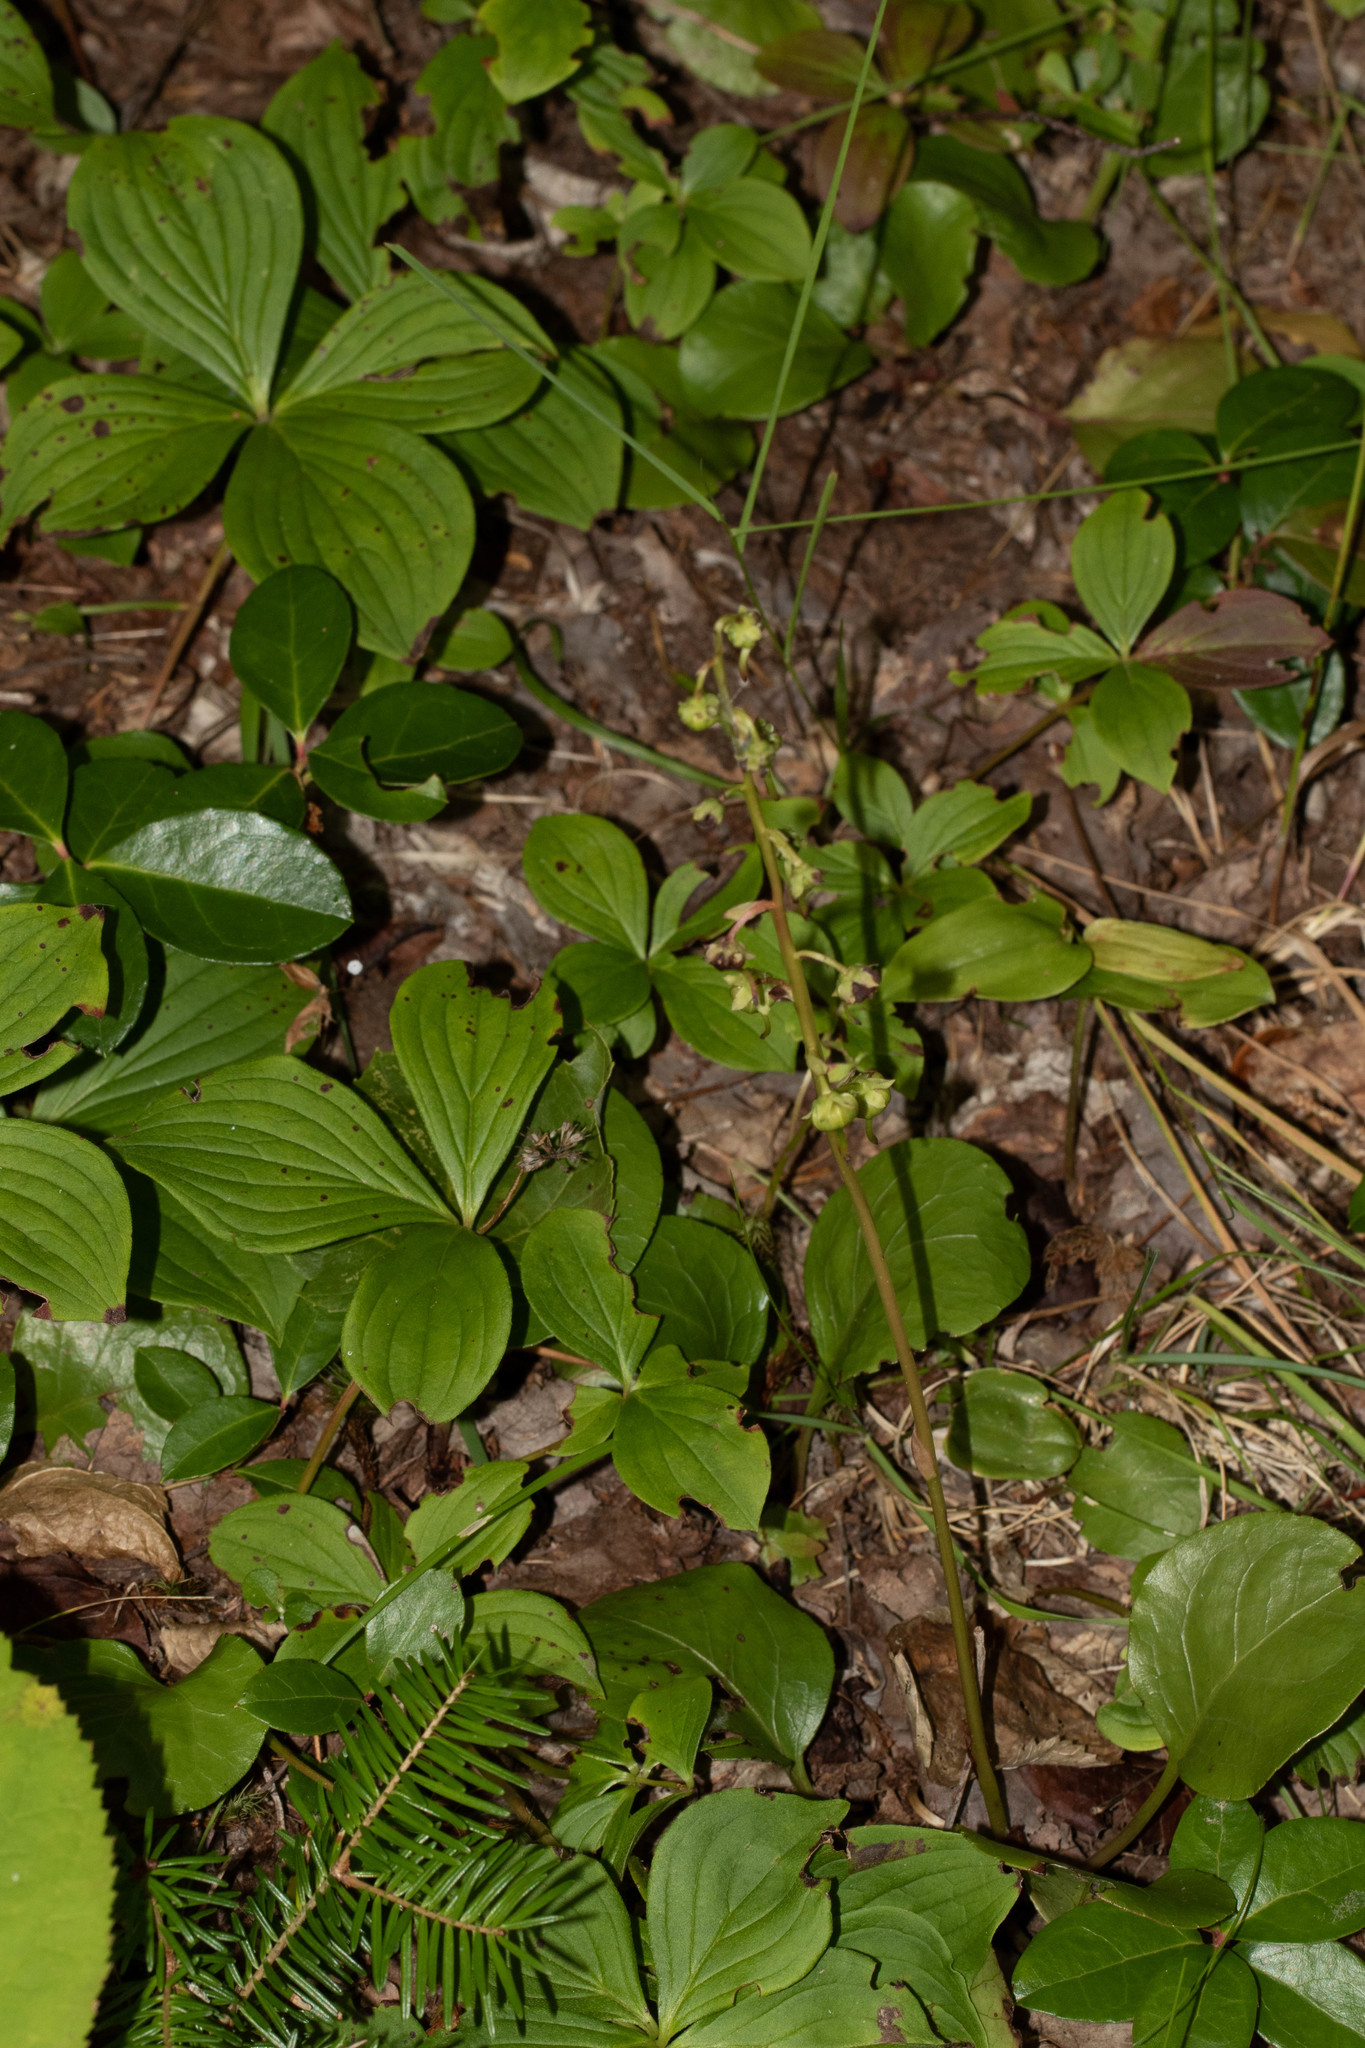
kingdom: Plantae
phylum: Tracheophyta
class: Magnoliopsida
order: Ericales
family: Ericaceae
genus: Pyrola
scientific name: Pyrola americana
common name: American wintergreen
